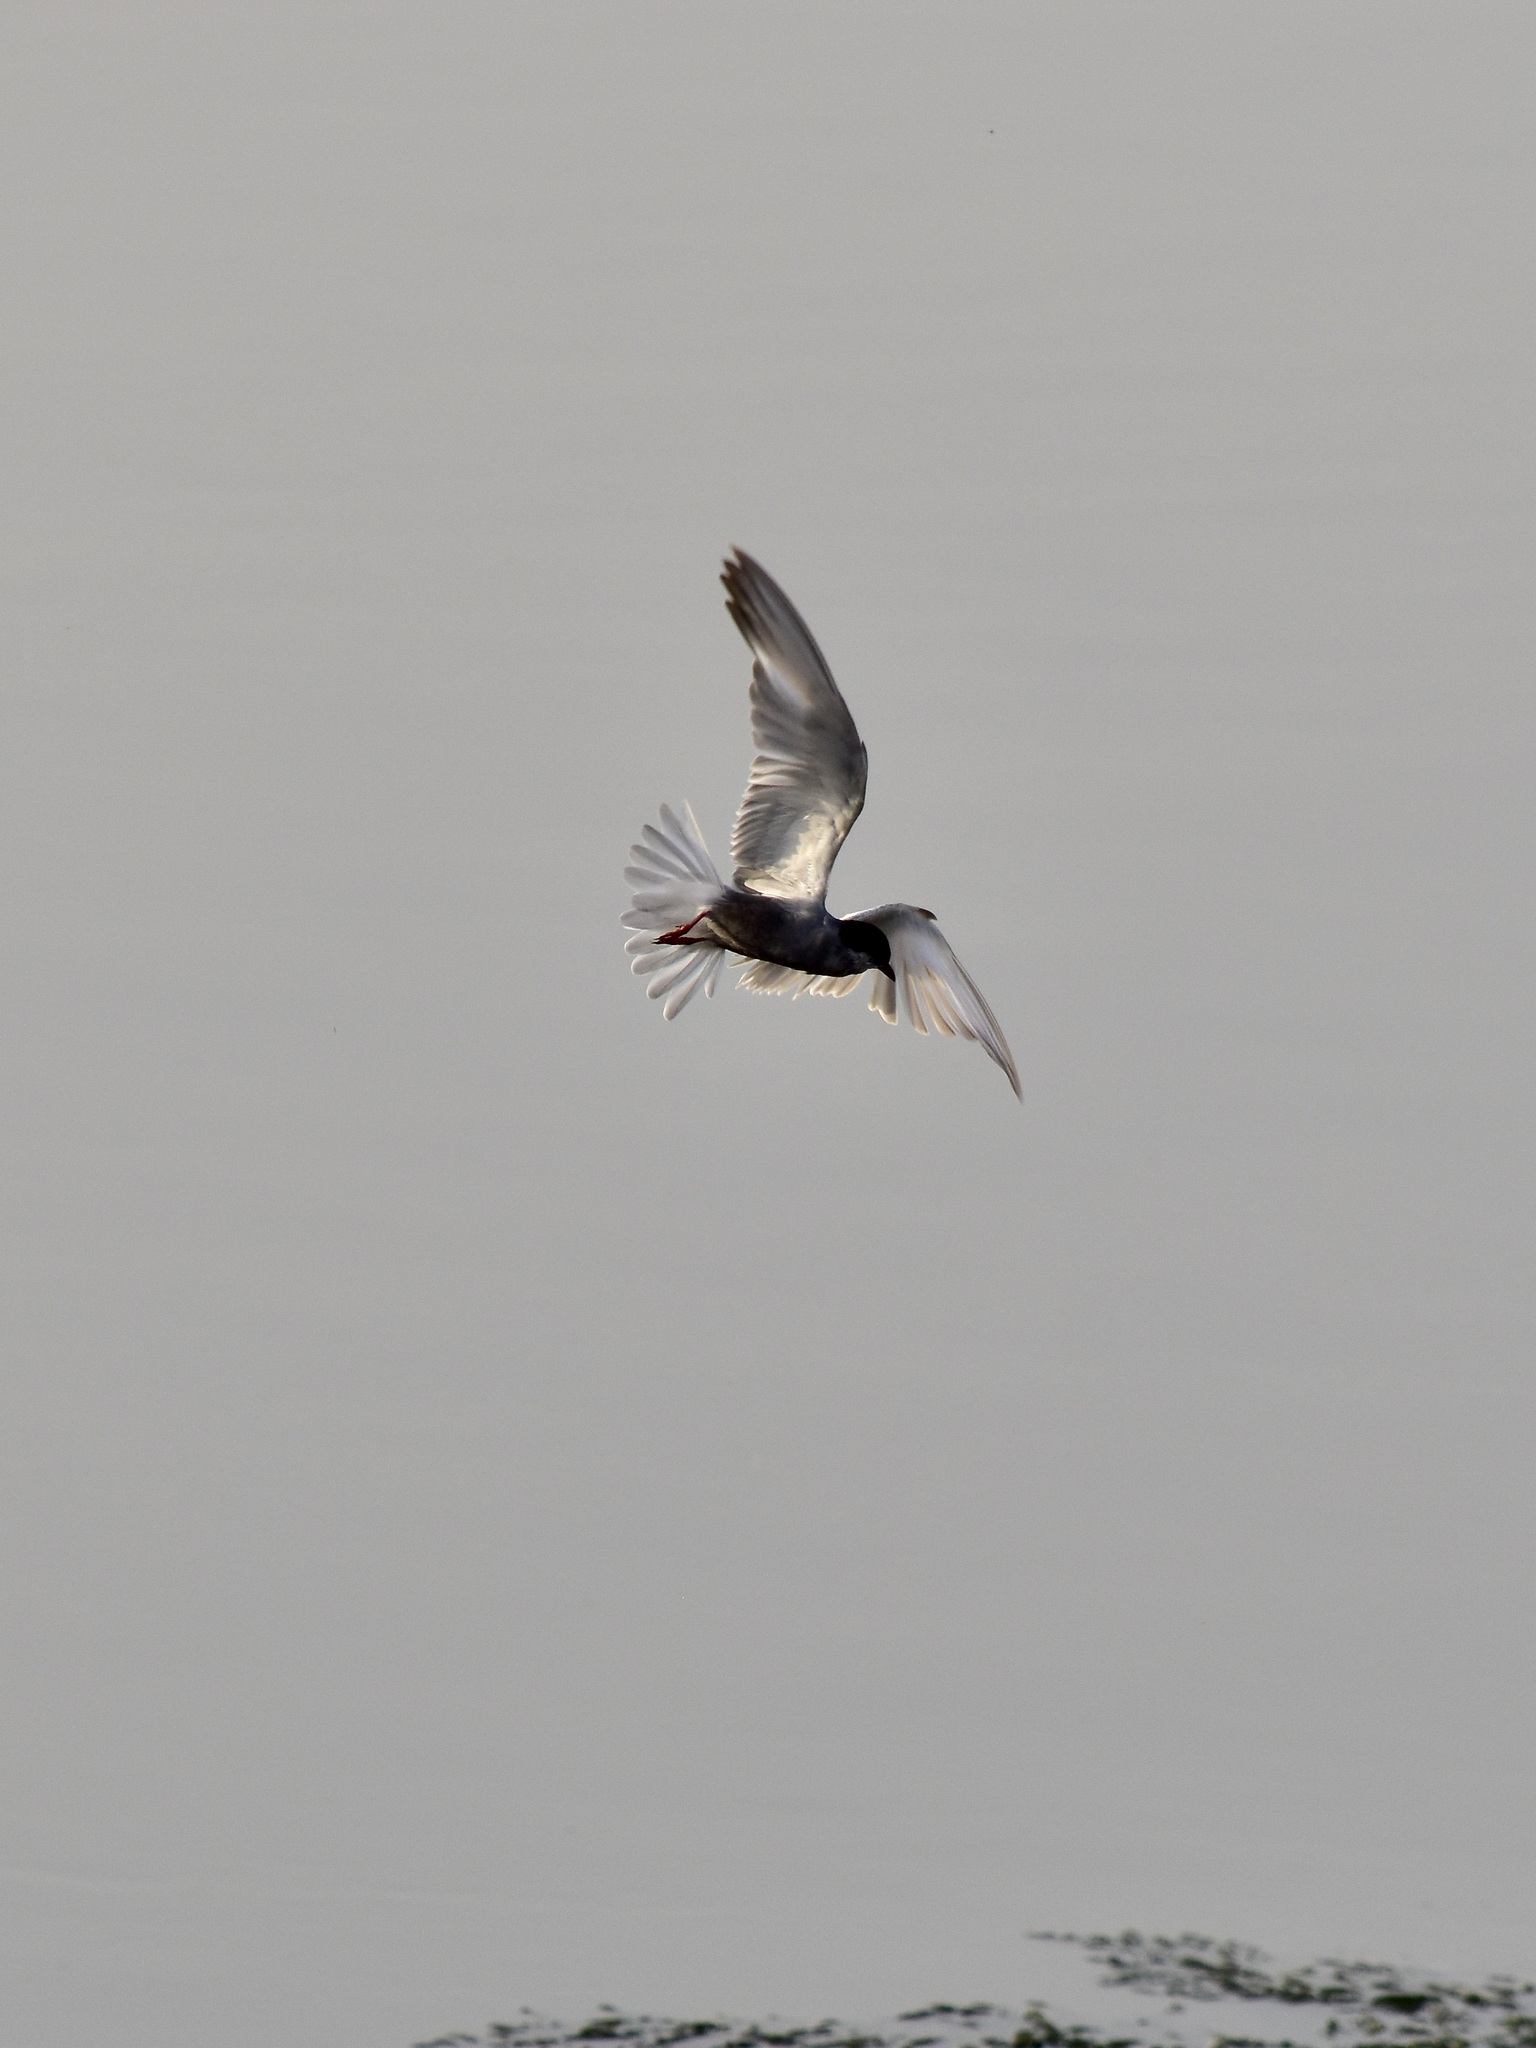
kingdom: Animalia
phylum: Chordata
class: Aves
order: Charadriiformes
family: Laridae
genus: Chlidonias
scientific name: Chlidonias hybrida
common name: Whiskered tern
